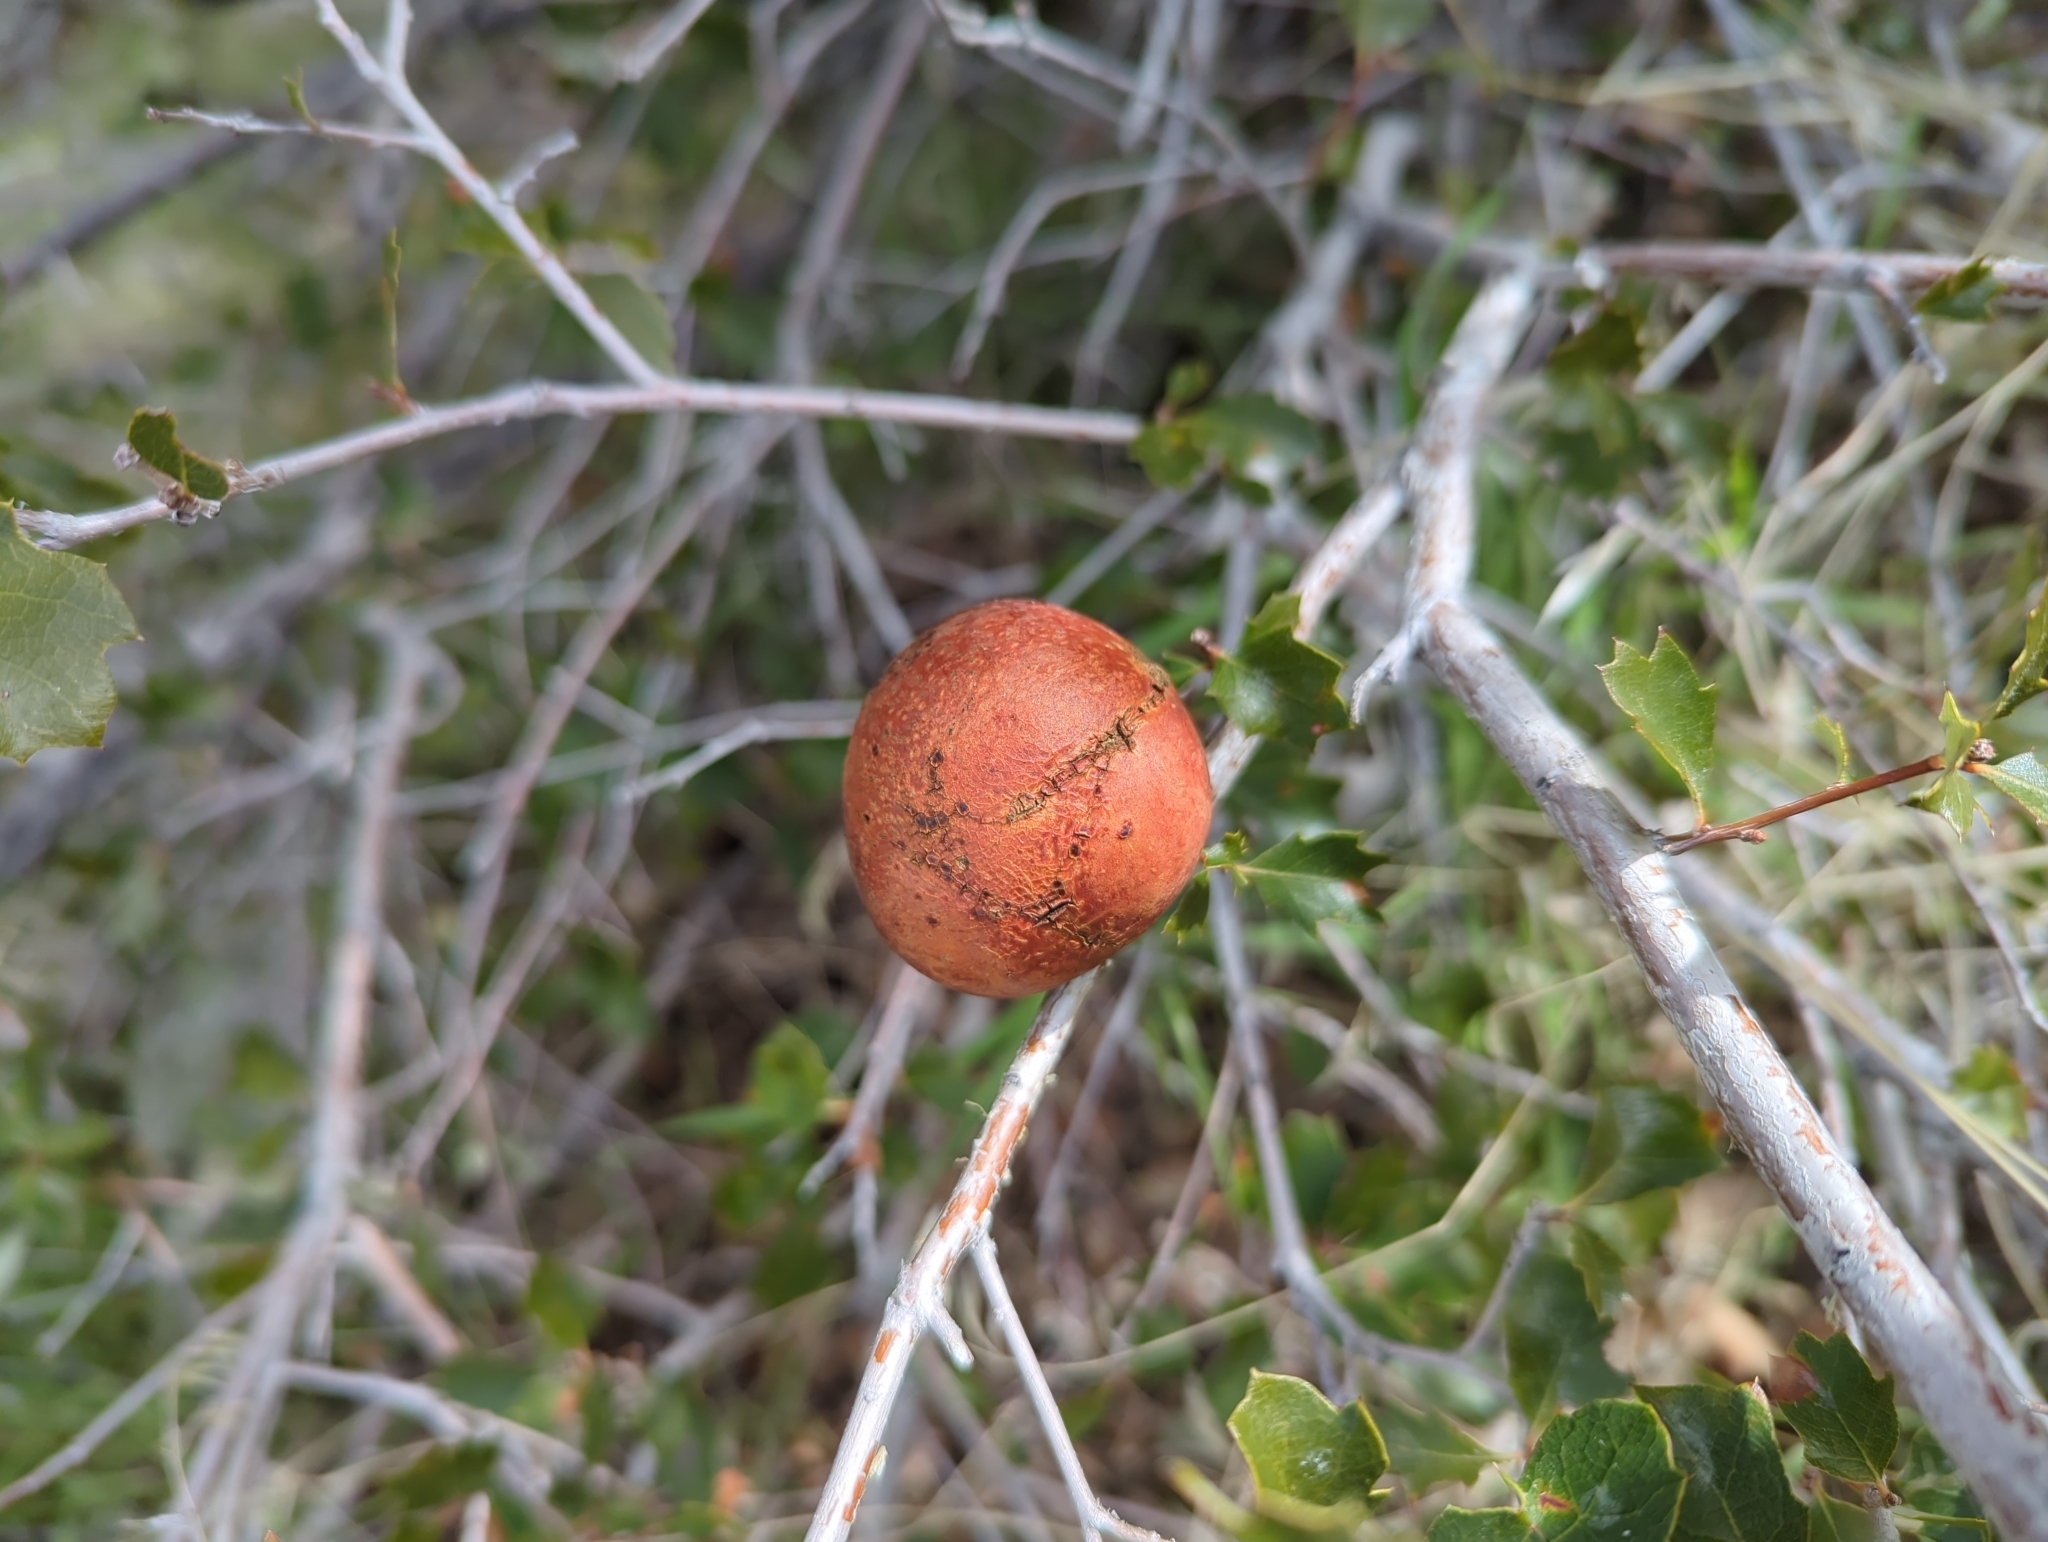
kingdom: Animalia
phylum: Arthropoda
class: Insecta
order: Hymenoptera
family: Cynipidae
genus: Andricus
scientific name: Andricus quercuscalifornicus
